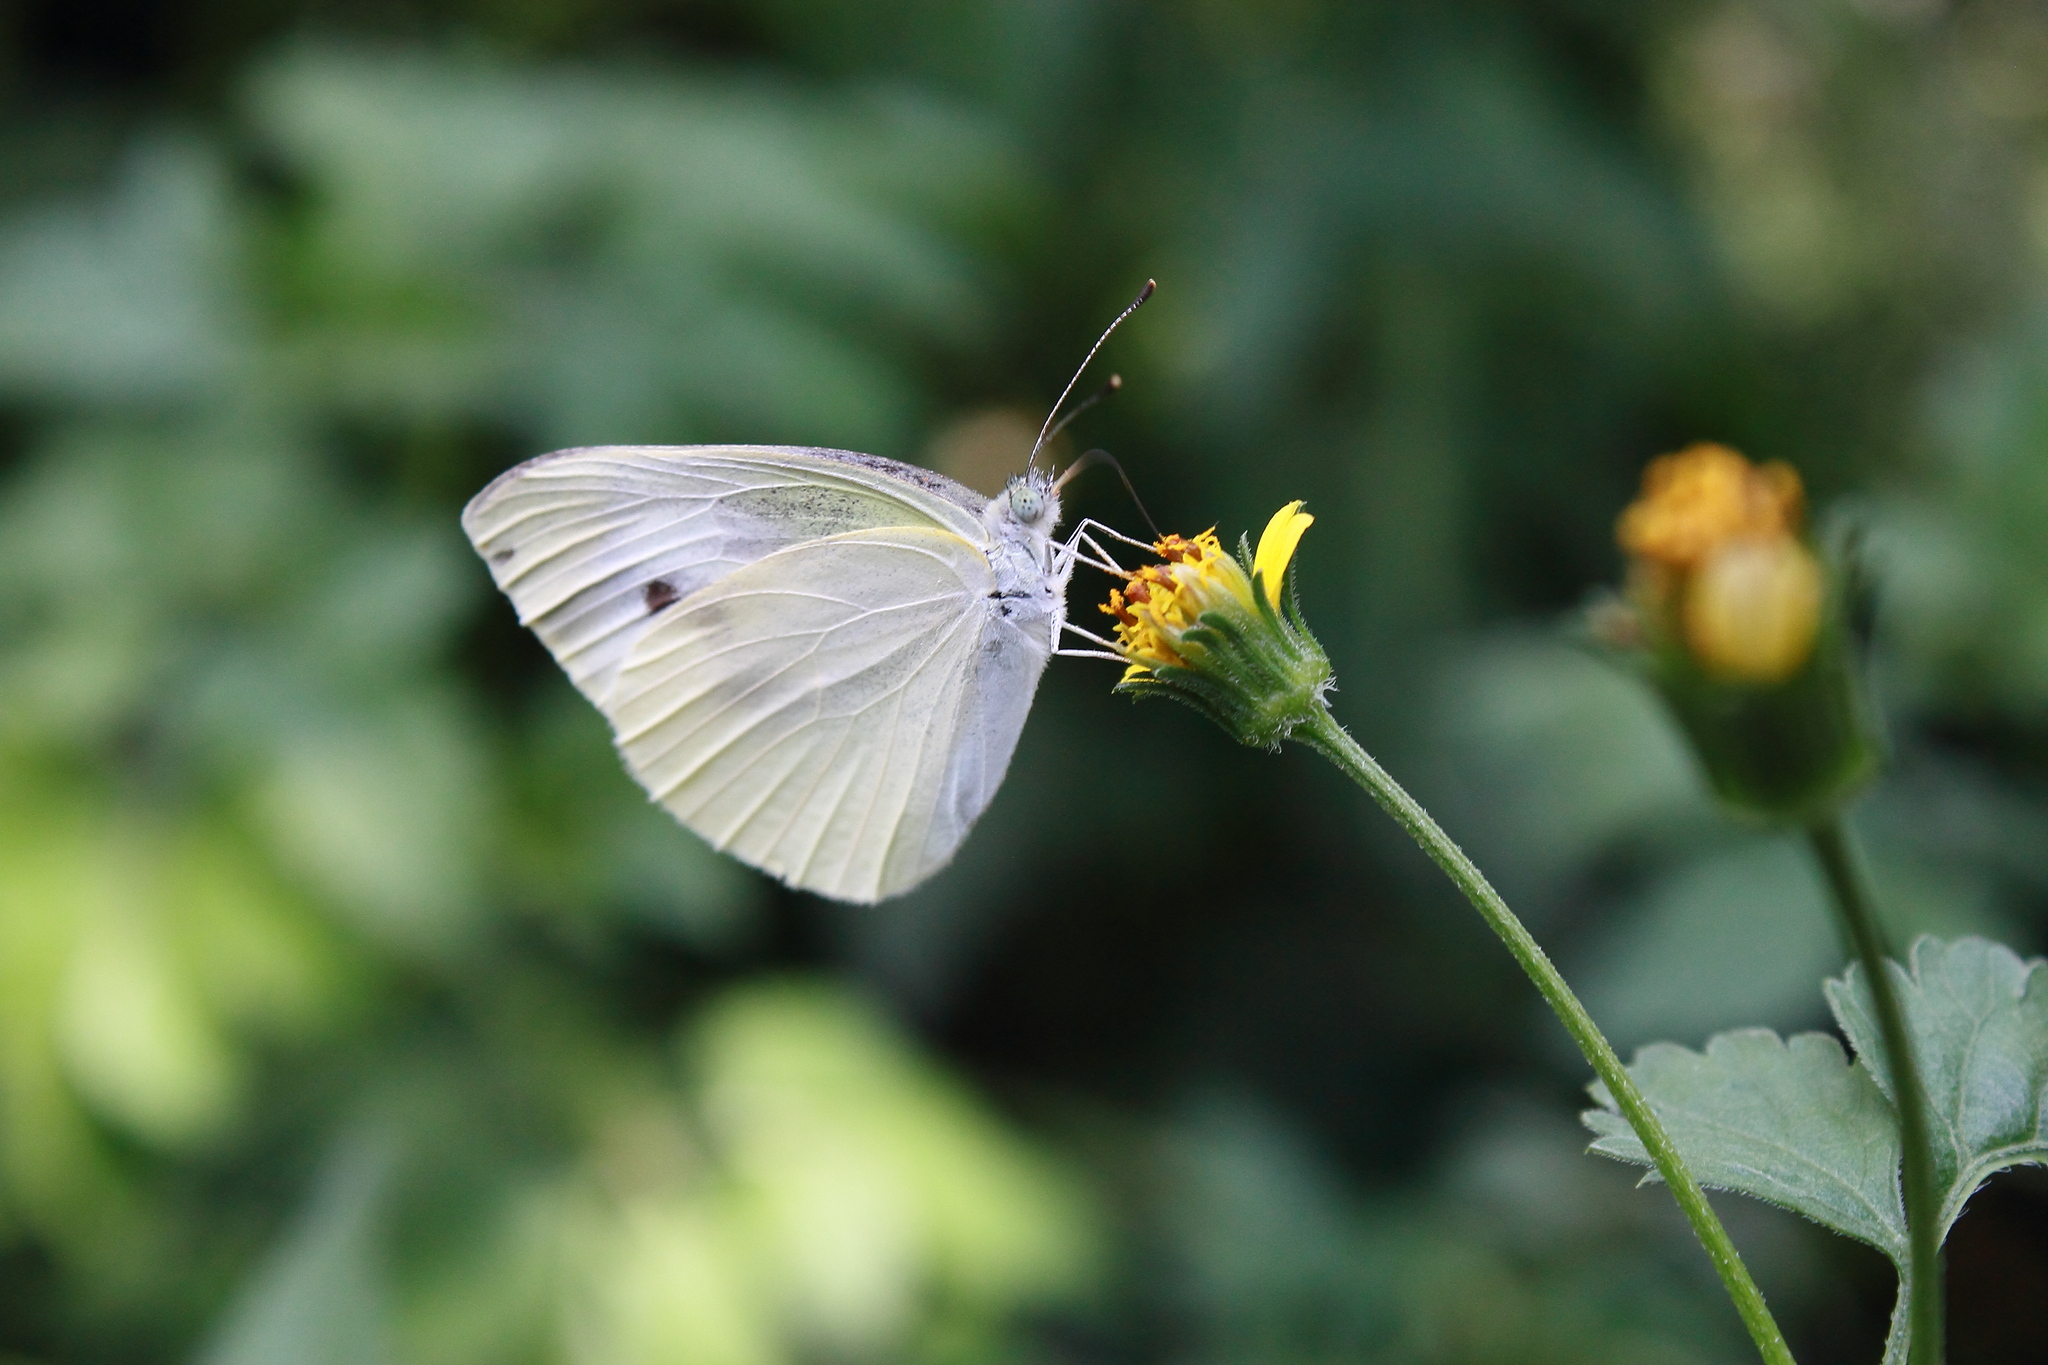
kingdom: Animalia
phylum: Arthropoda
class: Insecta
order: Lepidoptera
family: Pieridae
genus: Pieris
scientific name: Pieris rapae
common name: Small white
